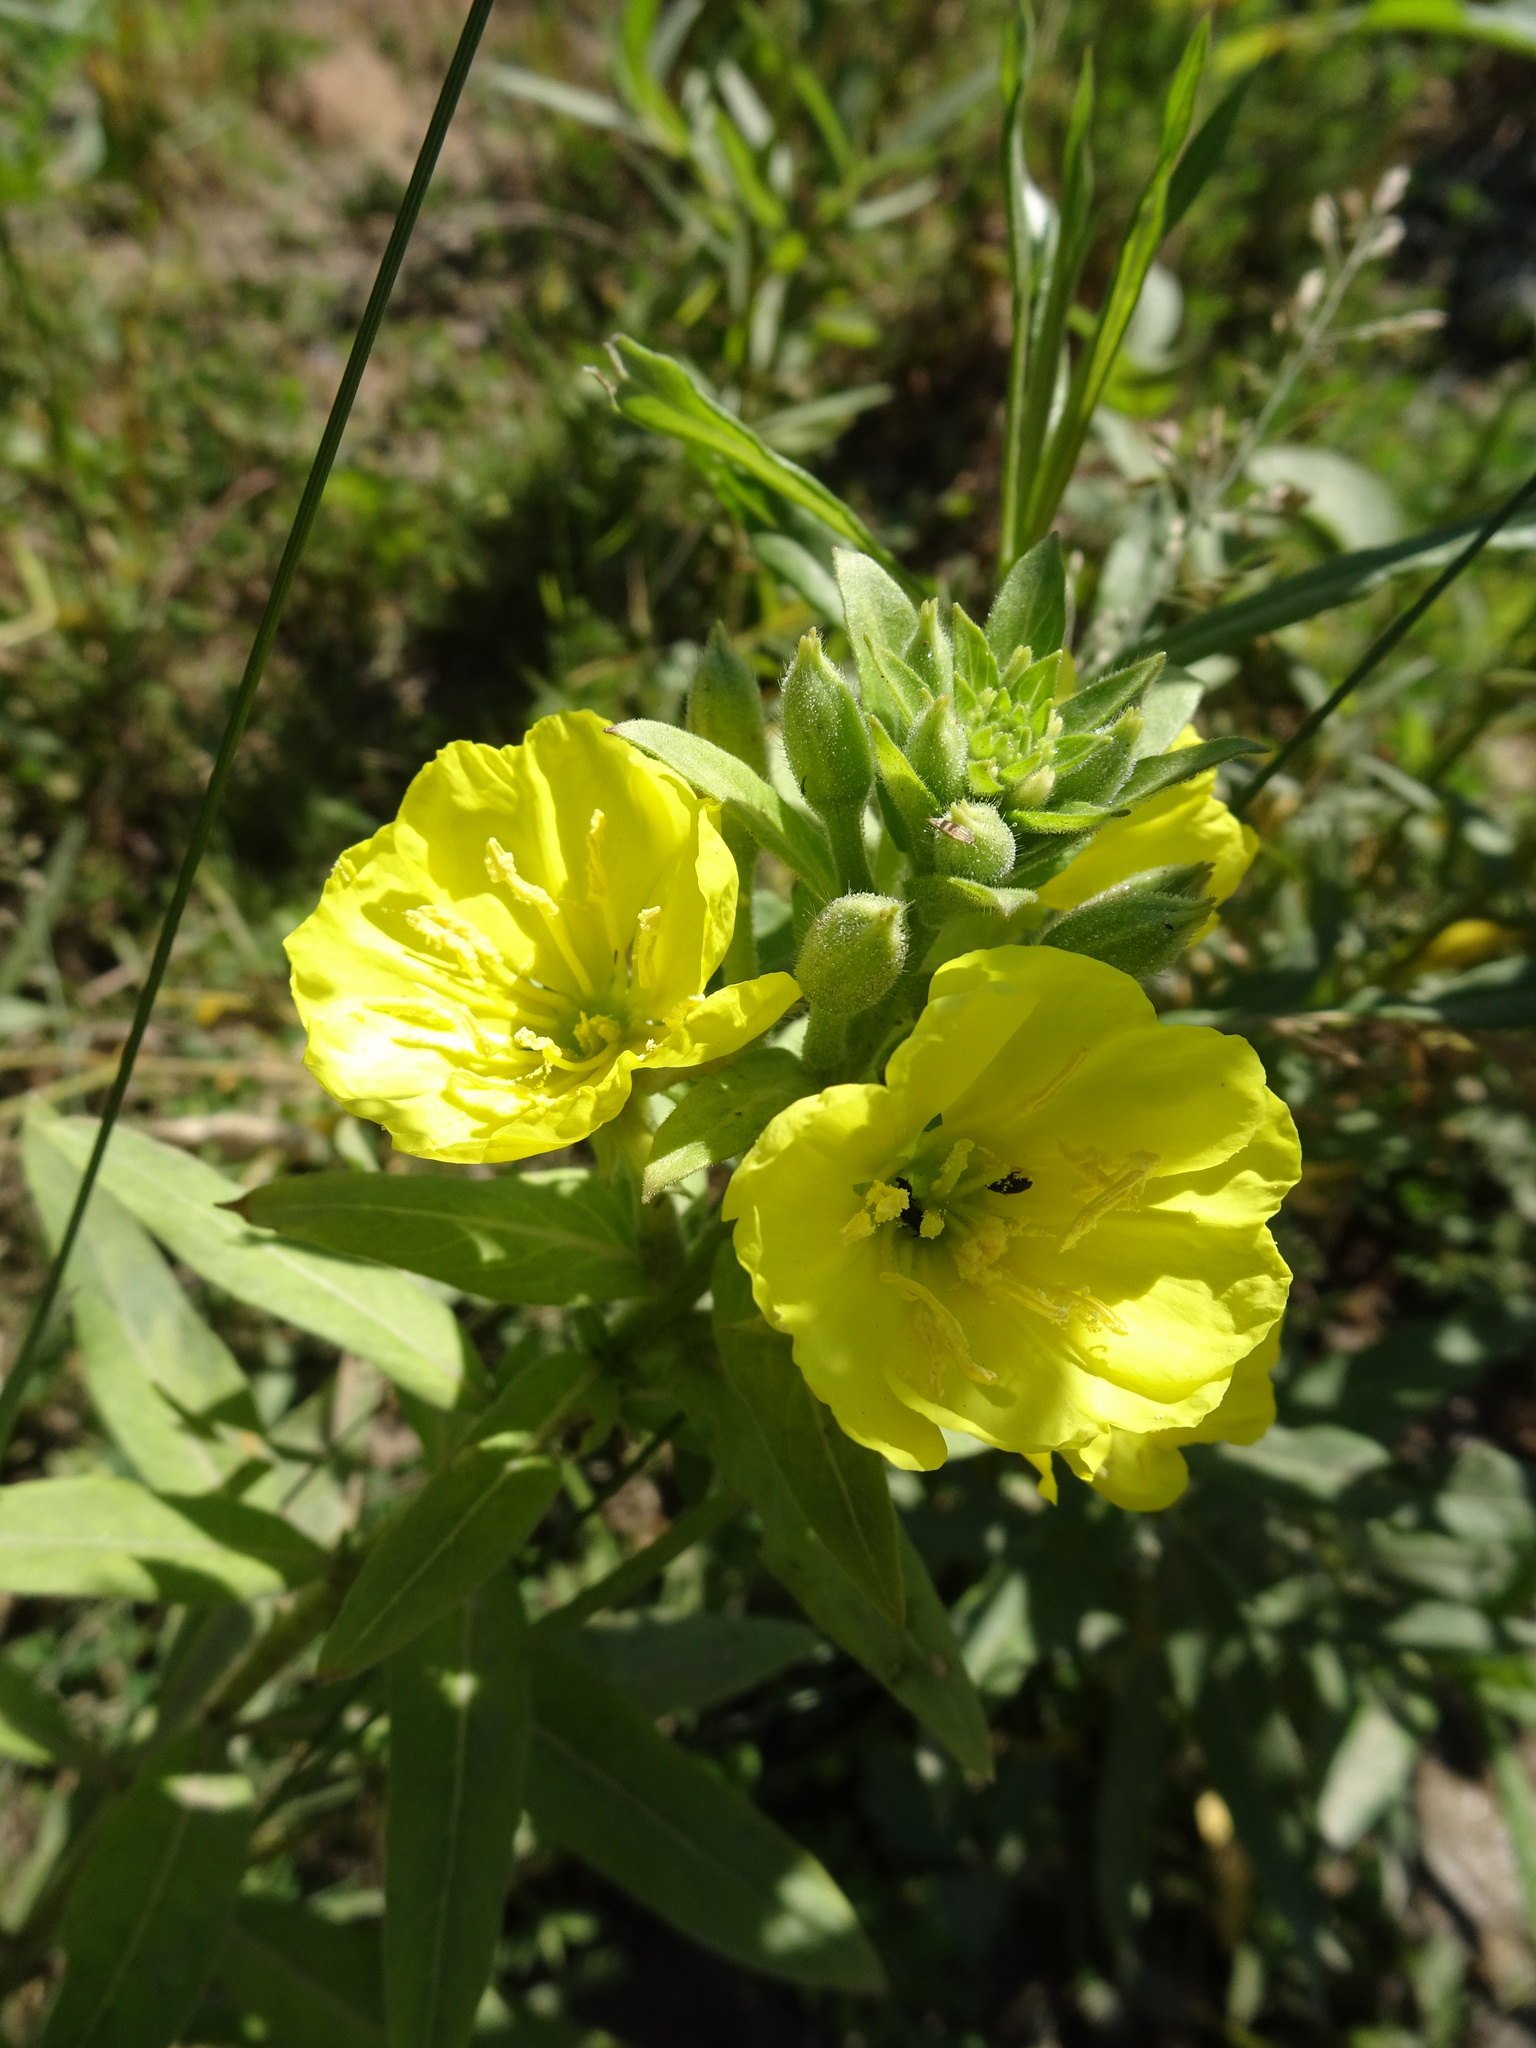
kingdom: Plantae
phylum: Tracheophyta
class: Magnoliopsida
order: Myrtales
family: Onagraceae
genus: Oenothera
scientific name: Oenothera biennis
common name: Common evening-primrose
